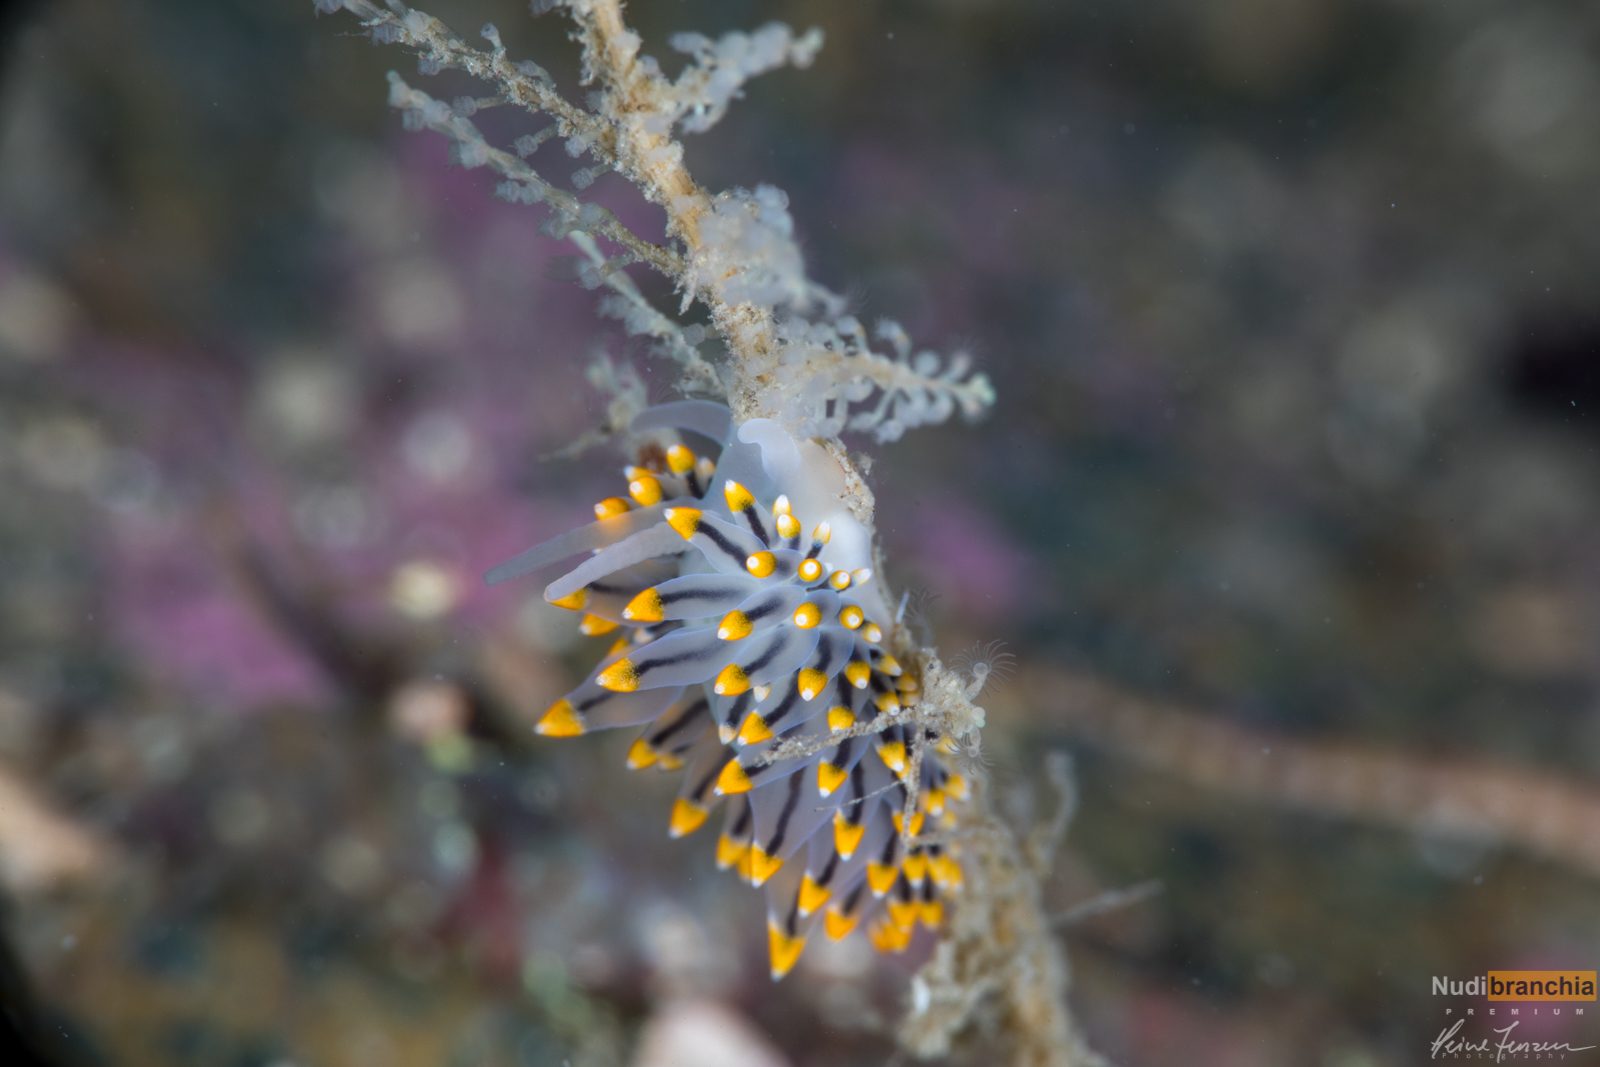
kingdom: Animalia
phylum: Mollusca
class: Gastropoda
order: Nudibranchia
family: Eubranchidae
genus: Eubranchus
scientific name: Eubranchus tricolor
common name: Painted balloon aeolis
